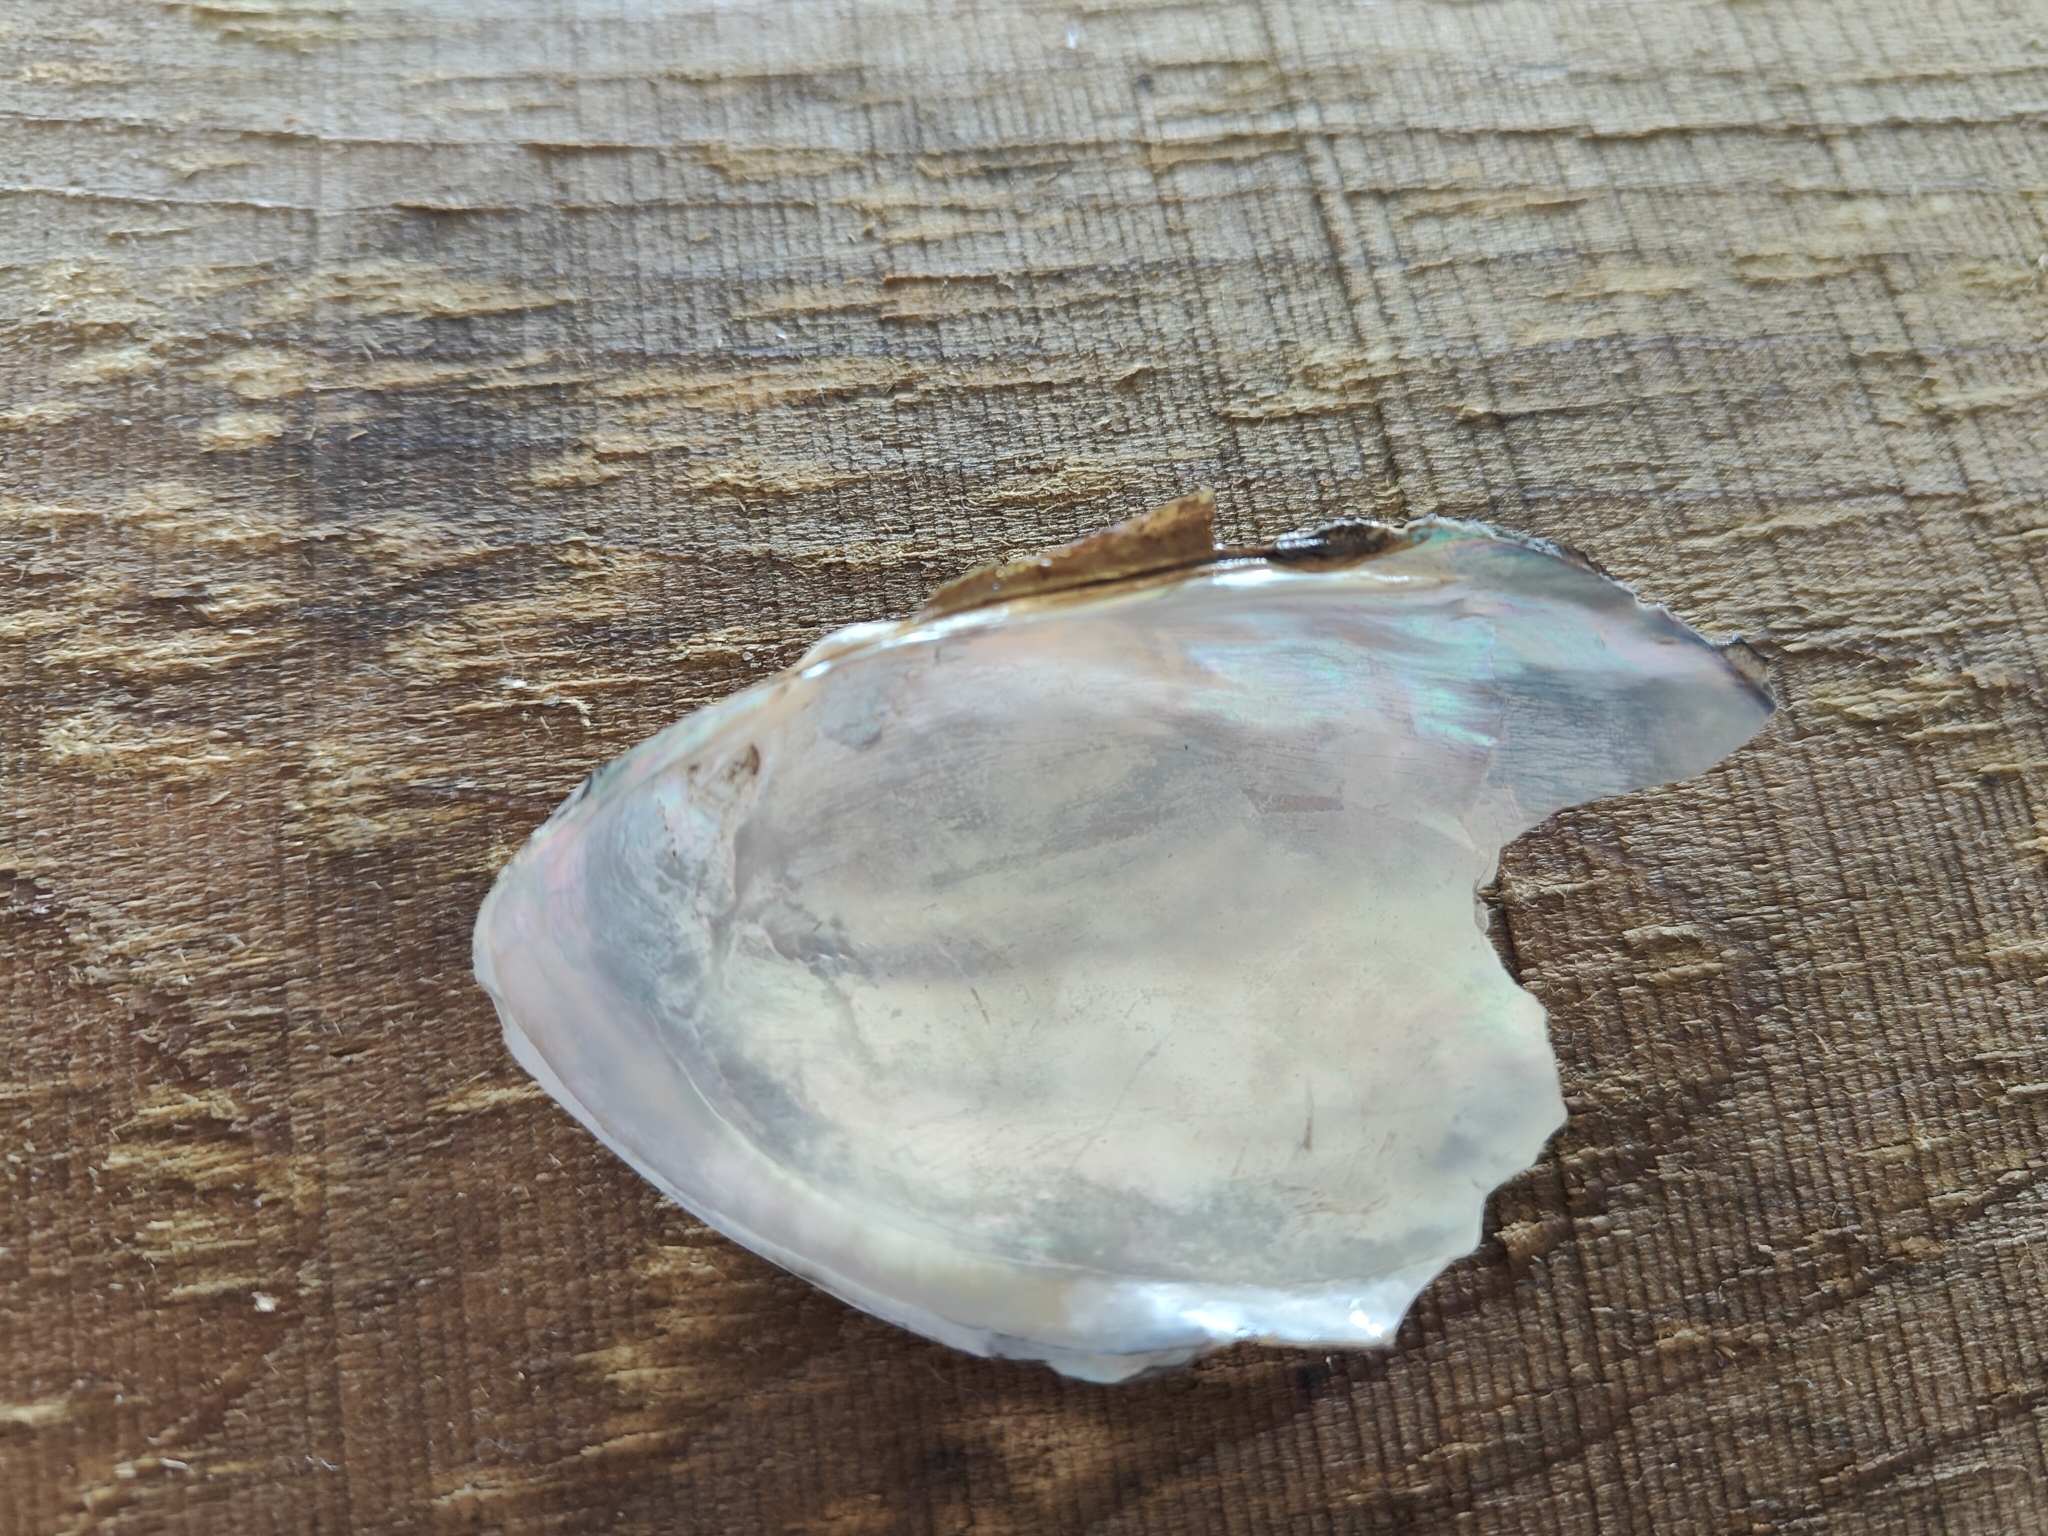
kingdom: Animalia
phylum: Mollusca
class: Bivalvia
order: Unionida
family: Unionidae
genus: Potamilus
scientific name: Potamilus fragilis
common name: Fragile papershell
